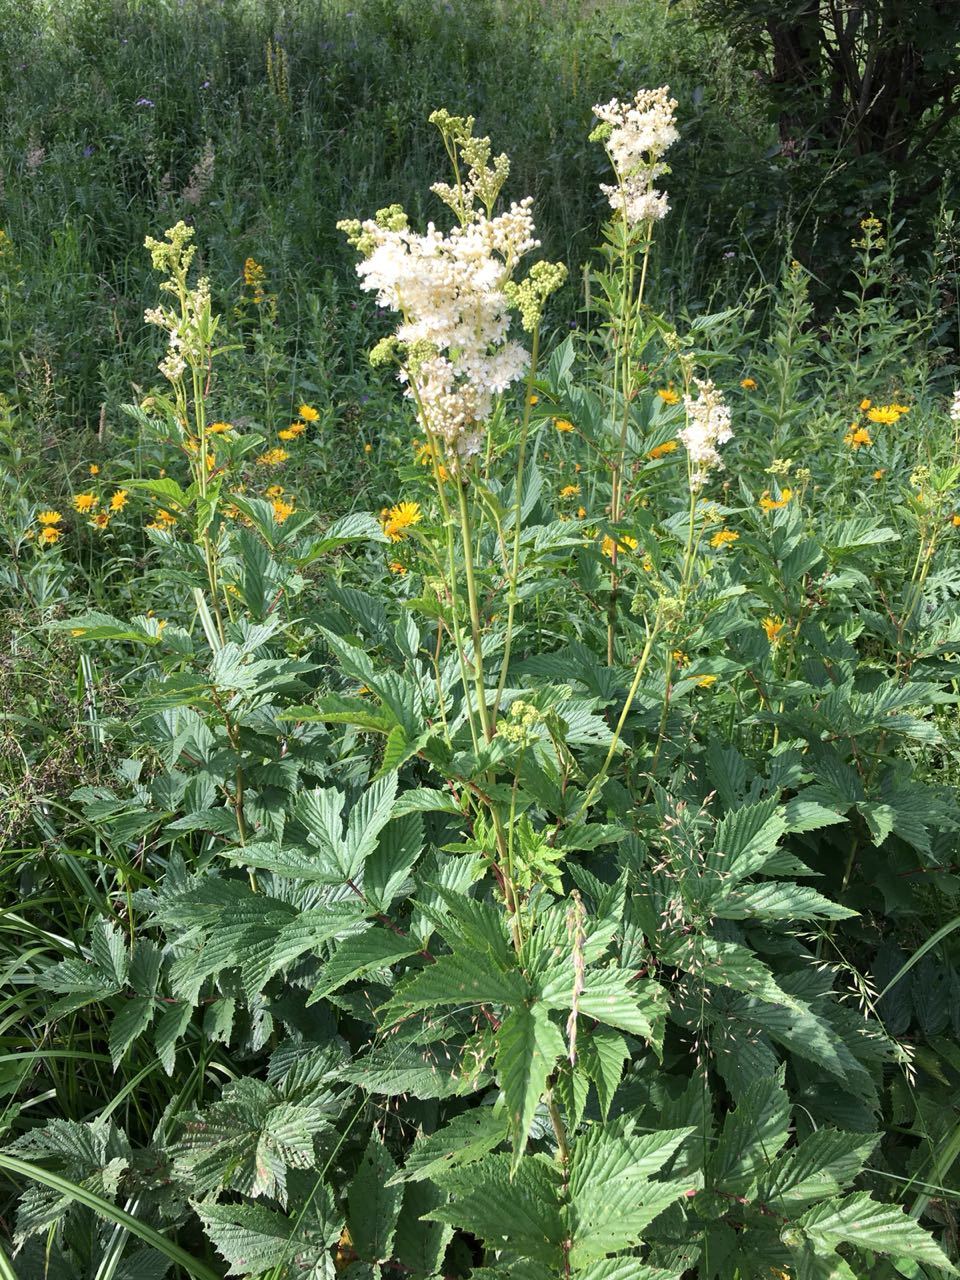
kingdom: Plantae
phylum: Tracheophyta
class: Magnoliopsida
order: Rosales
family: Rosaceae
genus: Filipendula
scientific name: Filipendula ulmaria
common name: Meadowsweet
